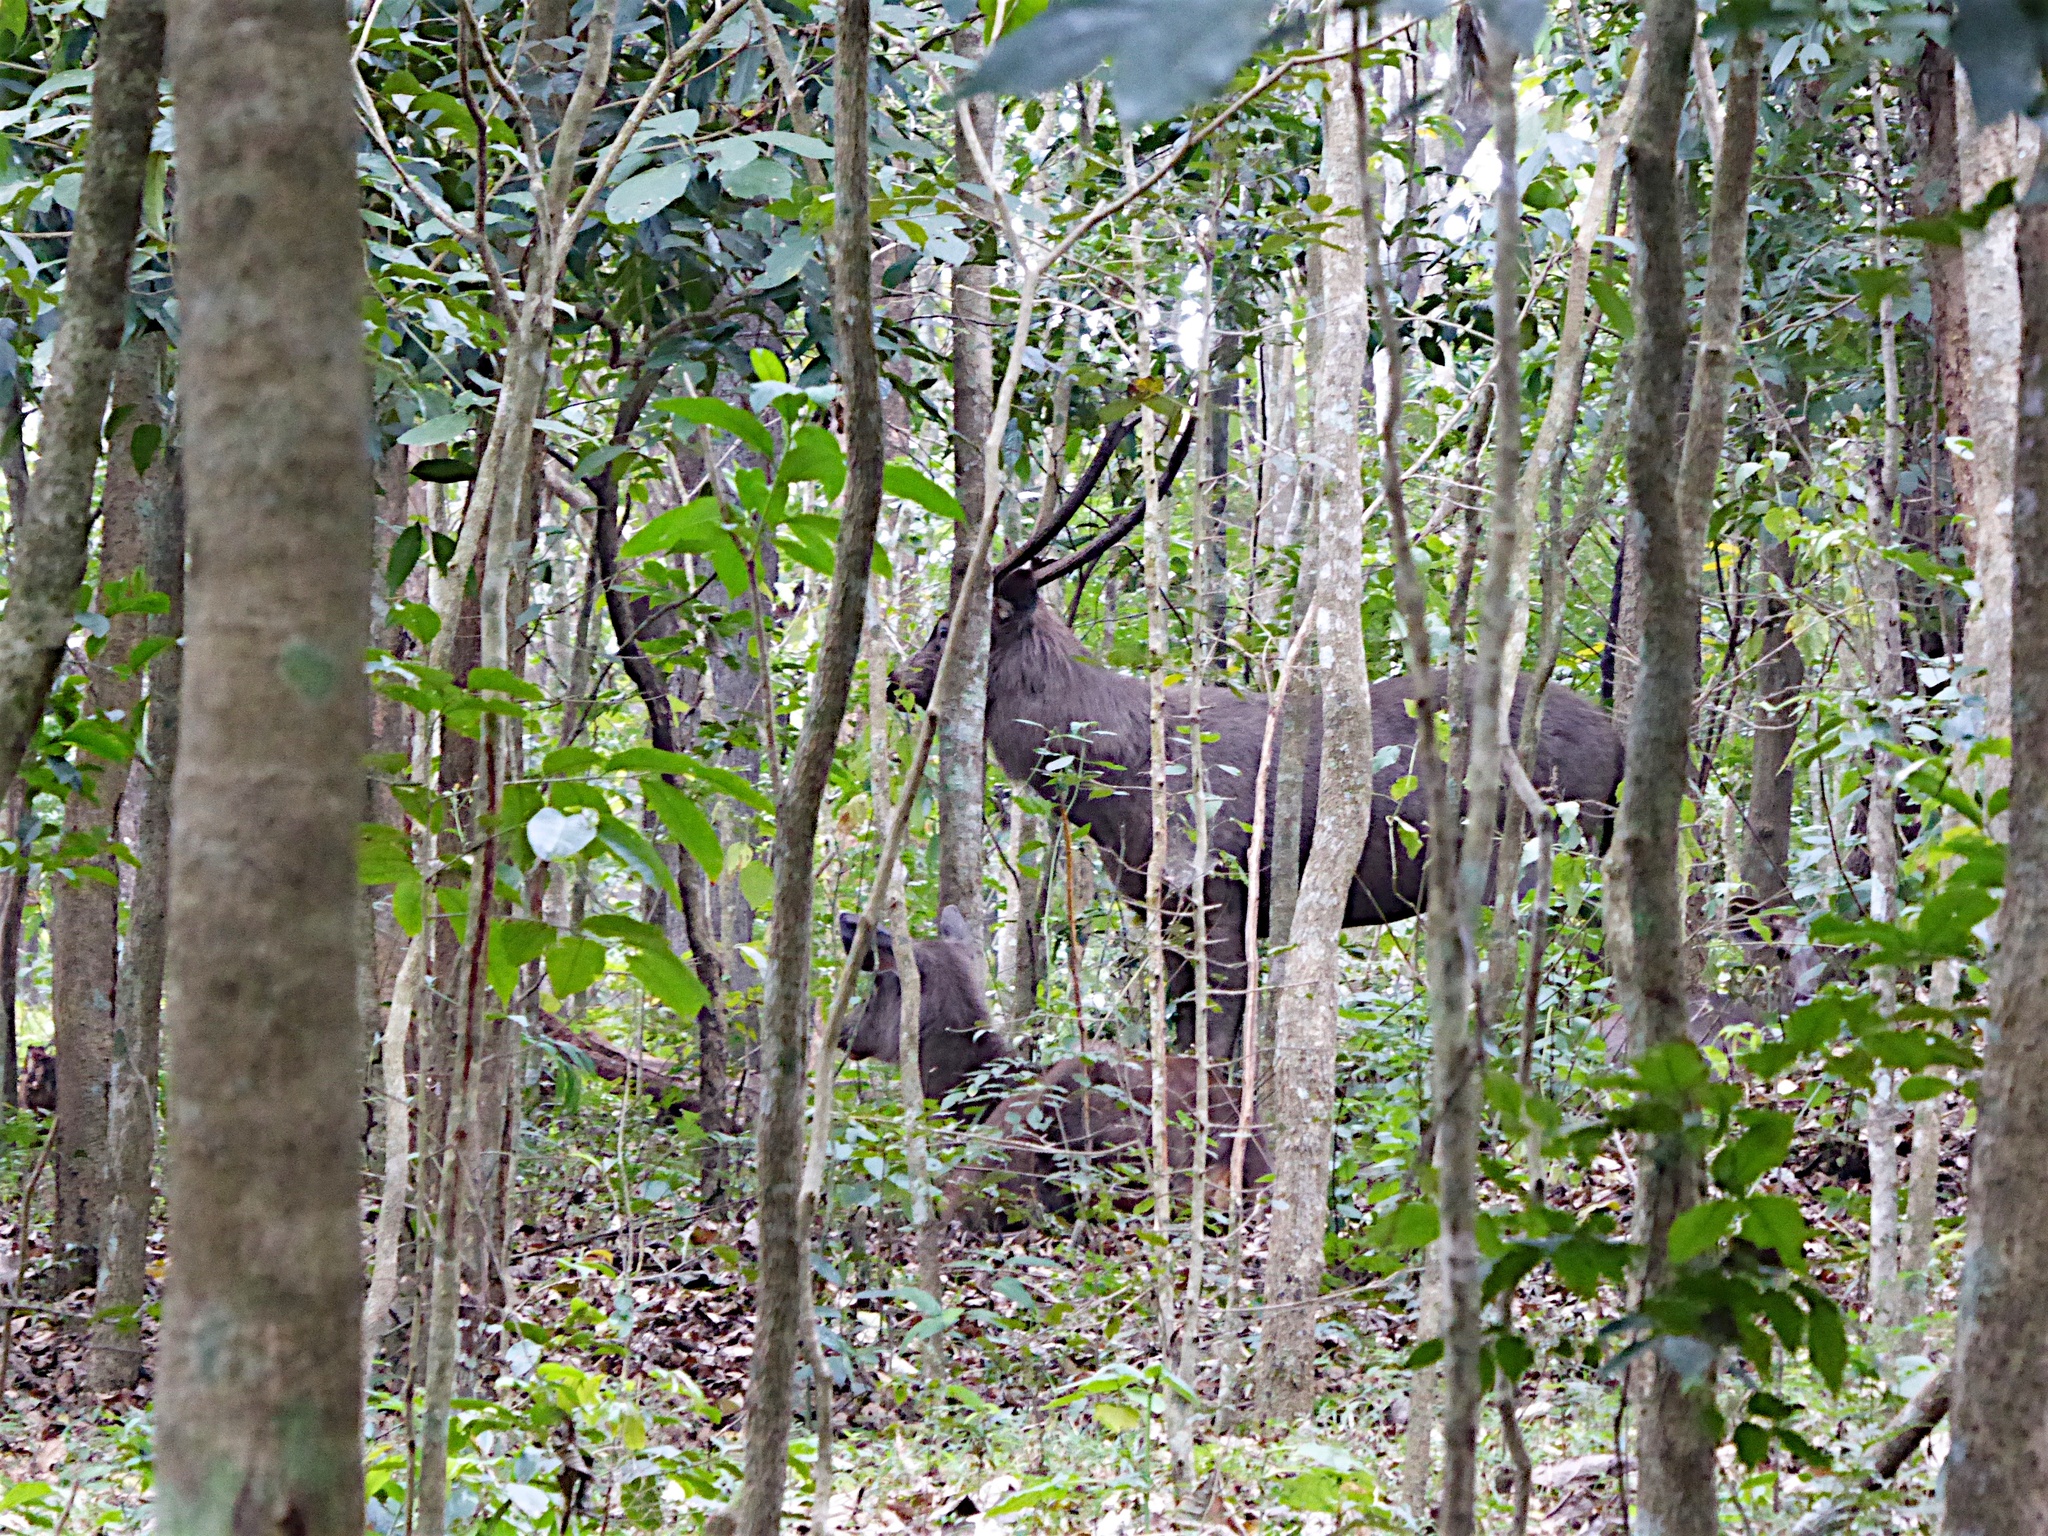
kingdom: Animalia
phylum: Chordata
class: Mammalia
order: Artiodactyla
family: Cervidae
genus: Rusa
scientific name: Rusa unicolor
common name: Sambar
